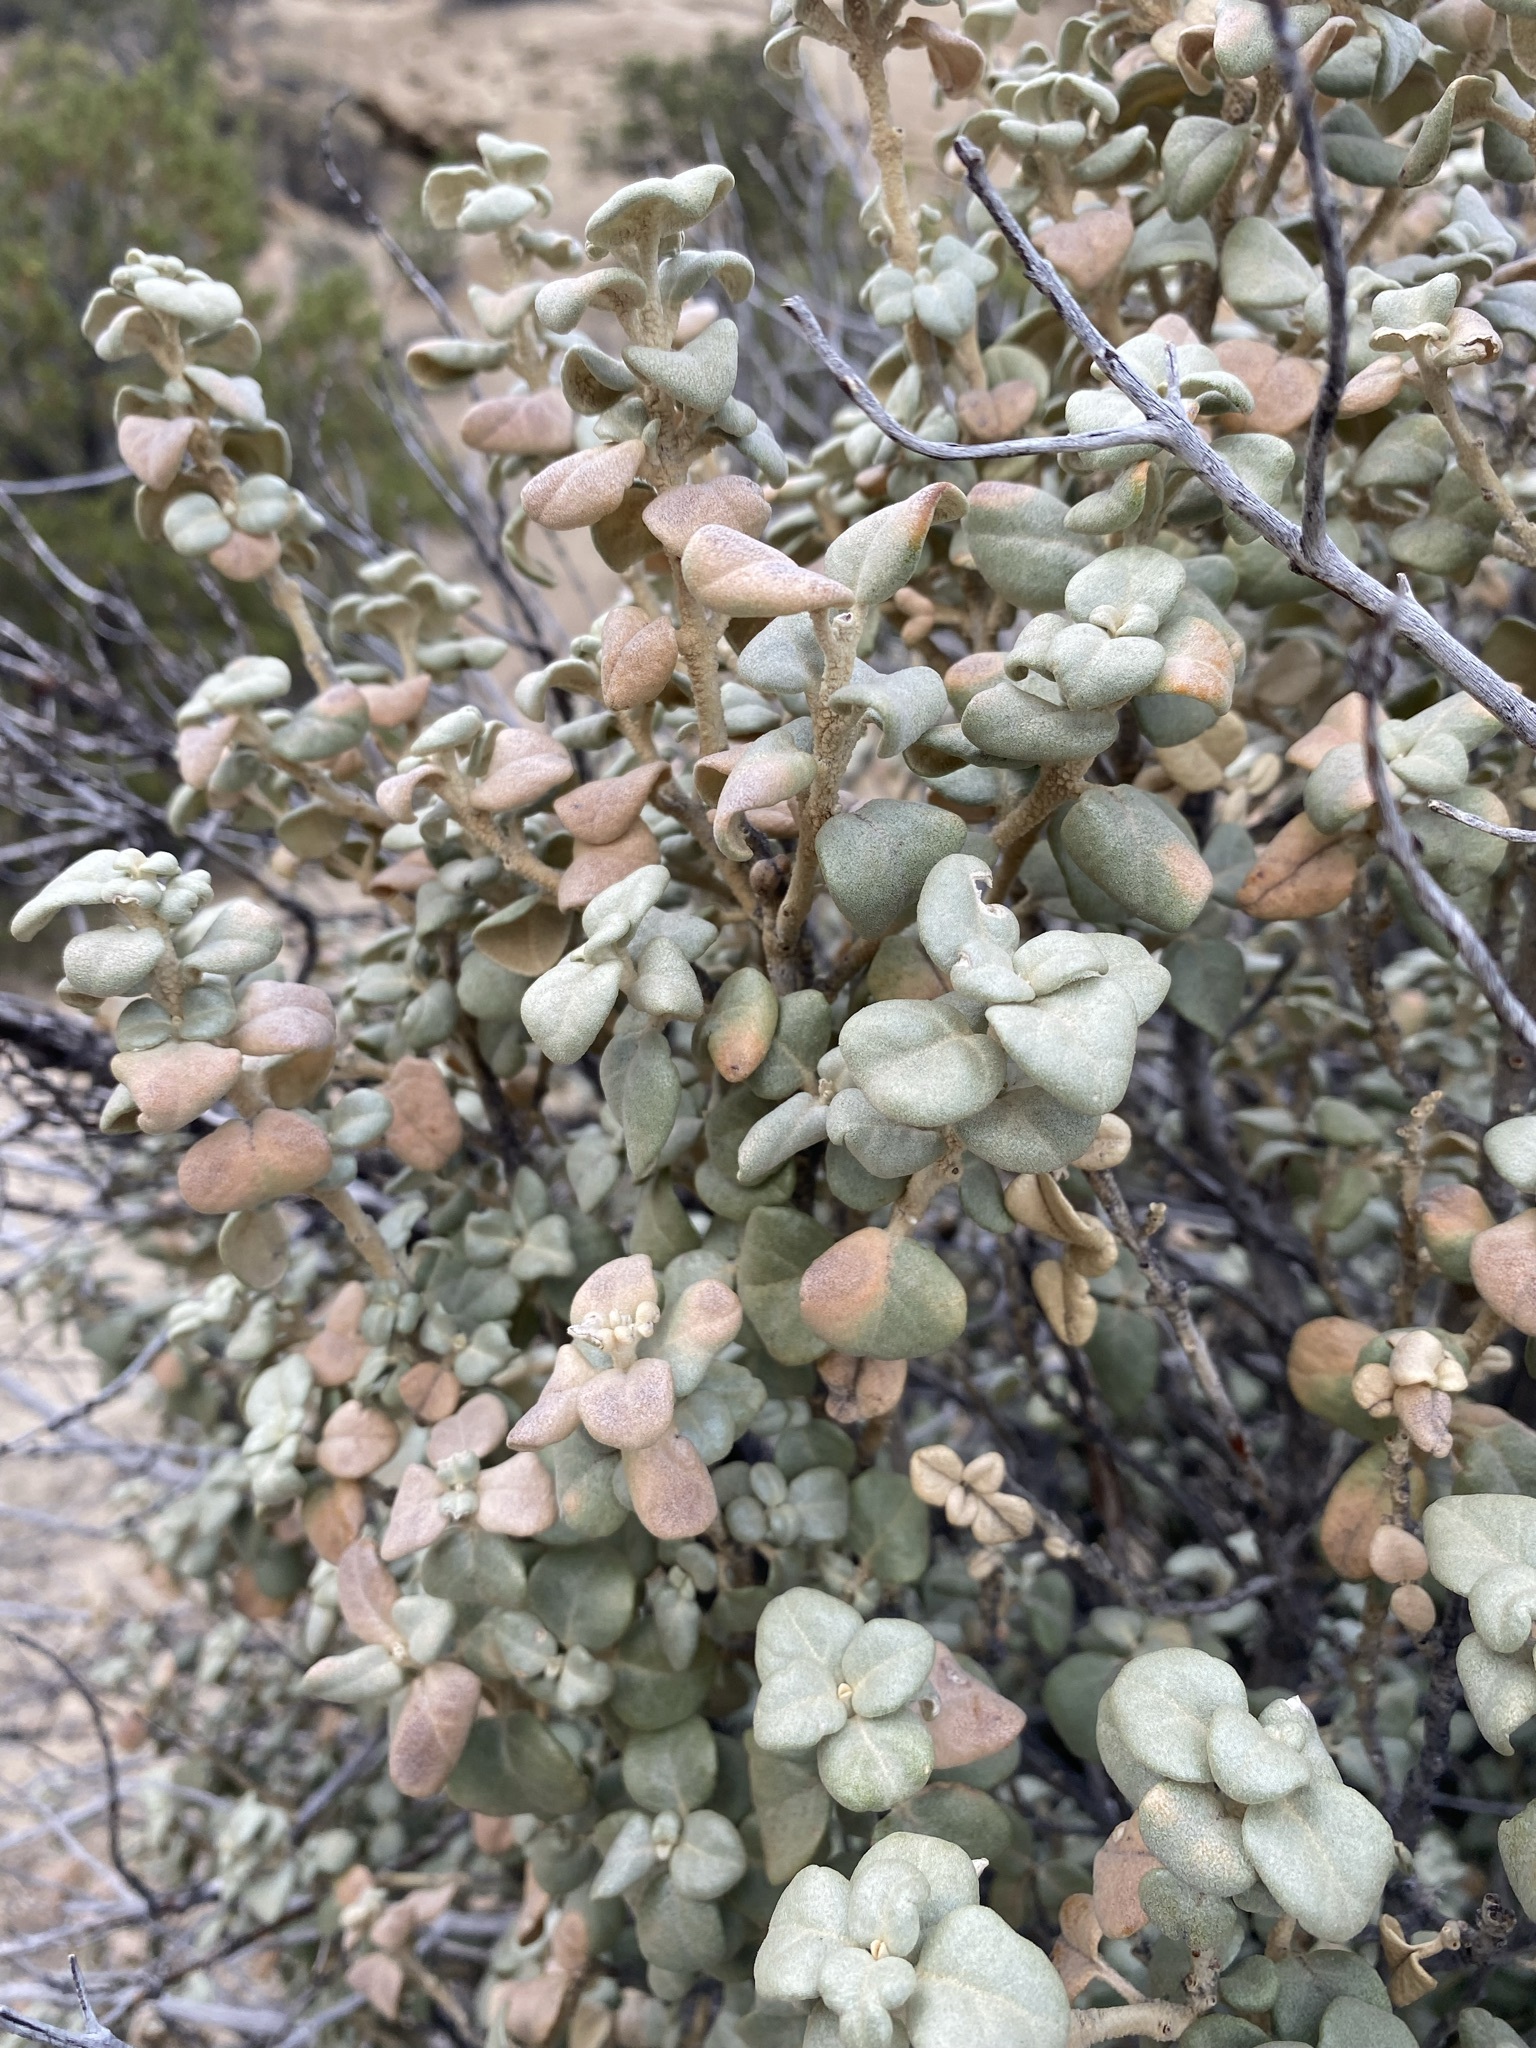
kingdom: Plantae
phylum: Tracheophyta
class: Magnoliopsida
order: Rosales
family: Elaeagnaceae
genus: Shepherdia
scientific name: Shepherdia rotundifolia
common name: Silverscale
